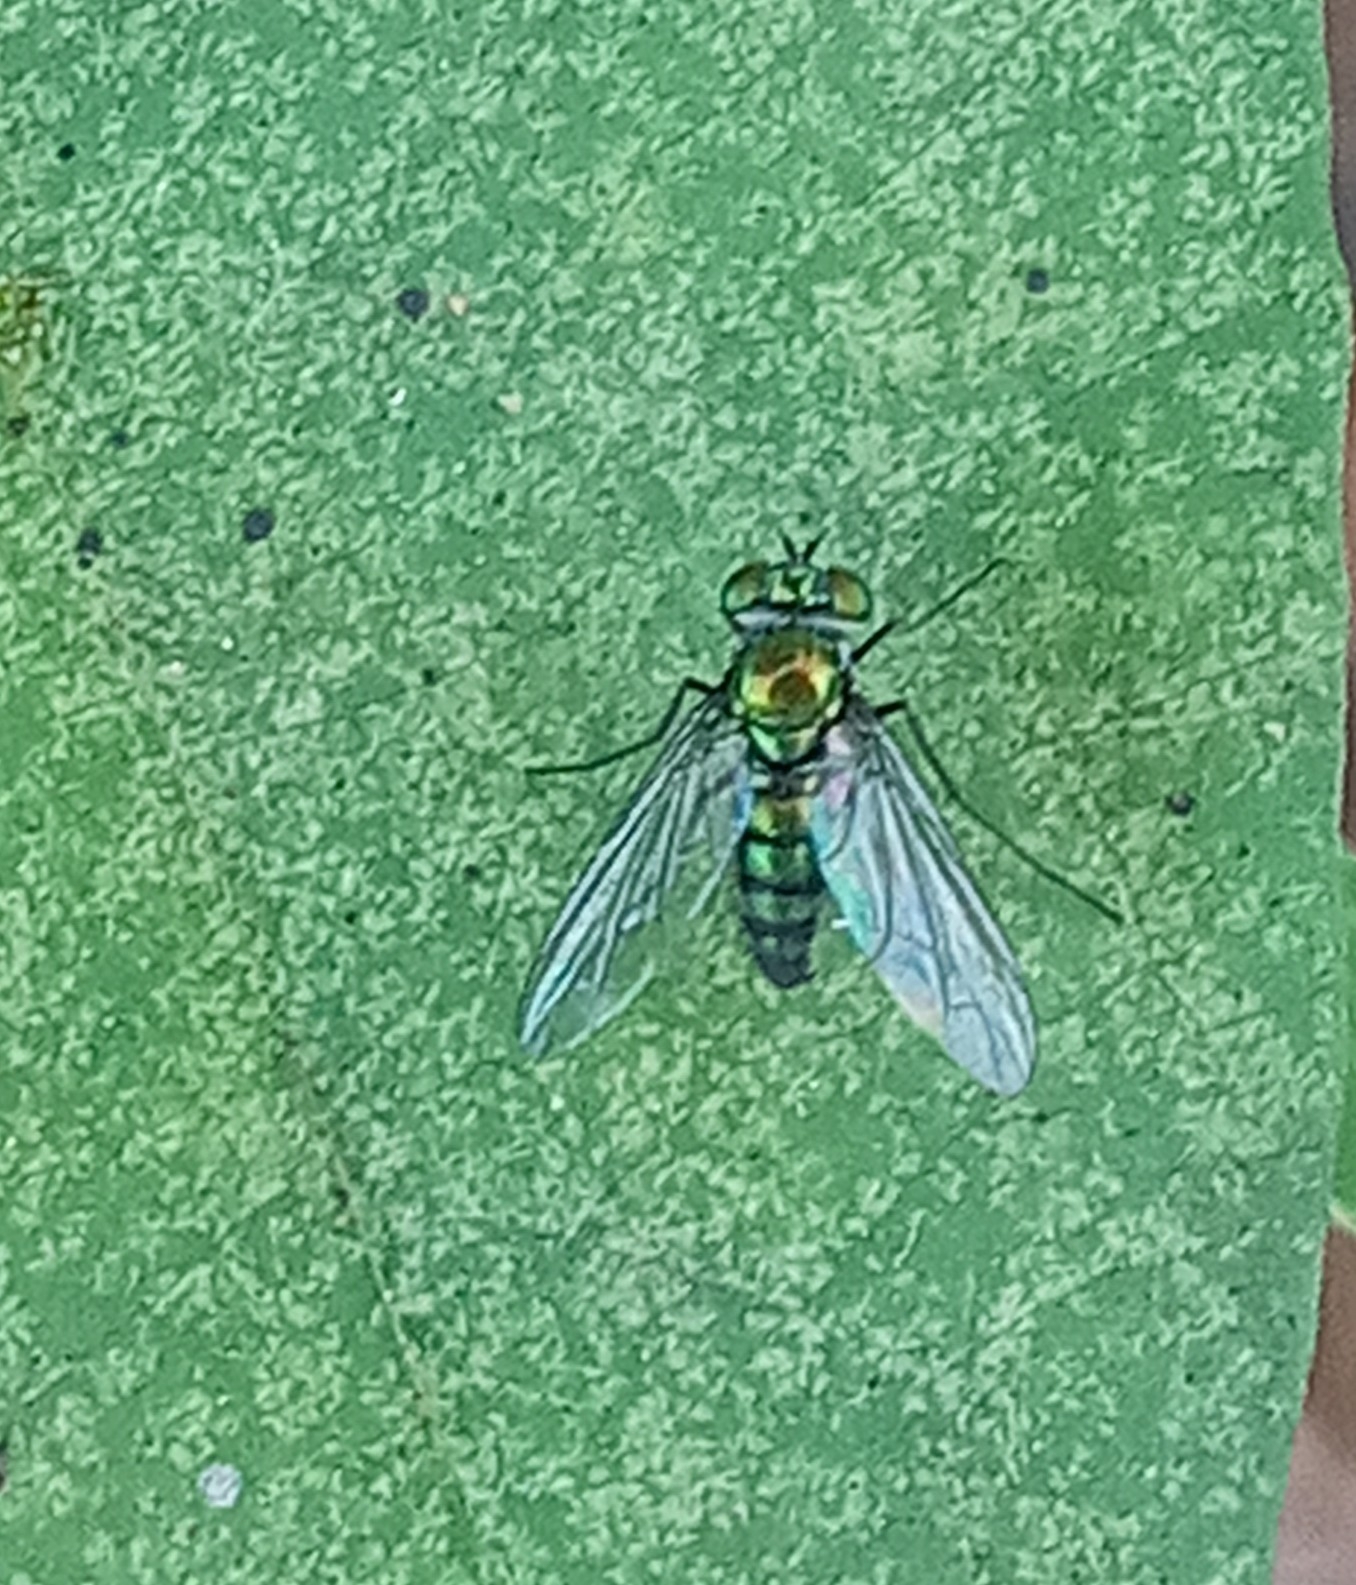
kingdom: Animalia
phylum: Arthropoda
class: Insecta
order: Diptera
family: Dolichopodidae
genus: Condylostylus
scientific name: Condylostylus longicornis
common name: Long-legged fly
